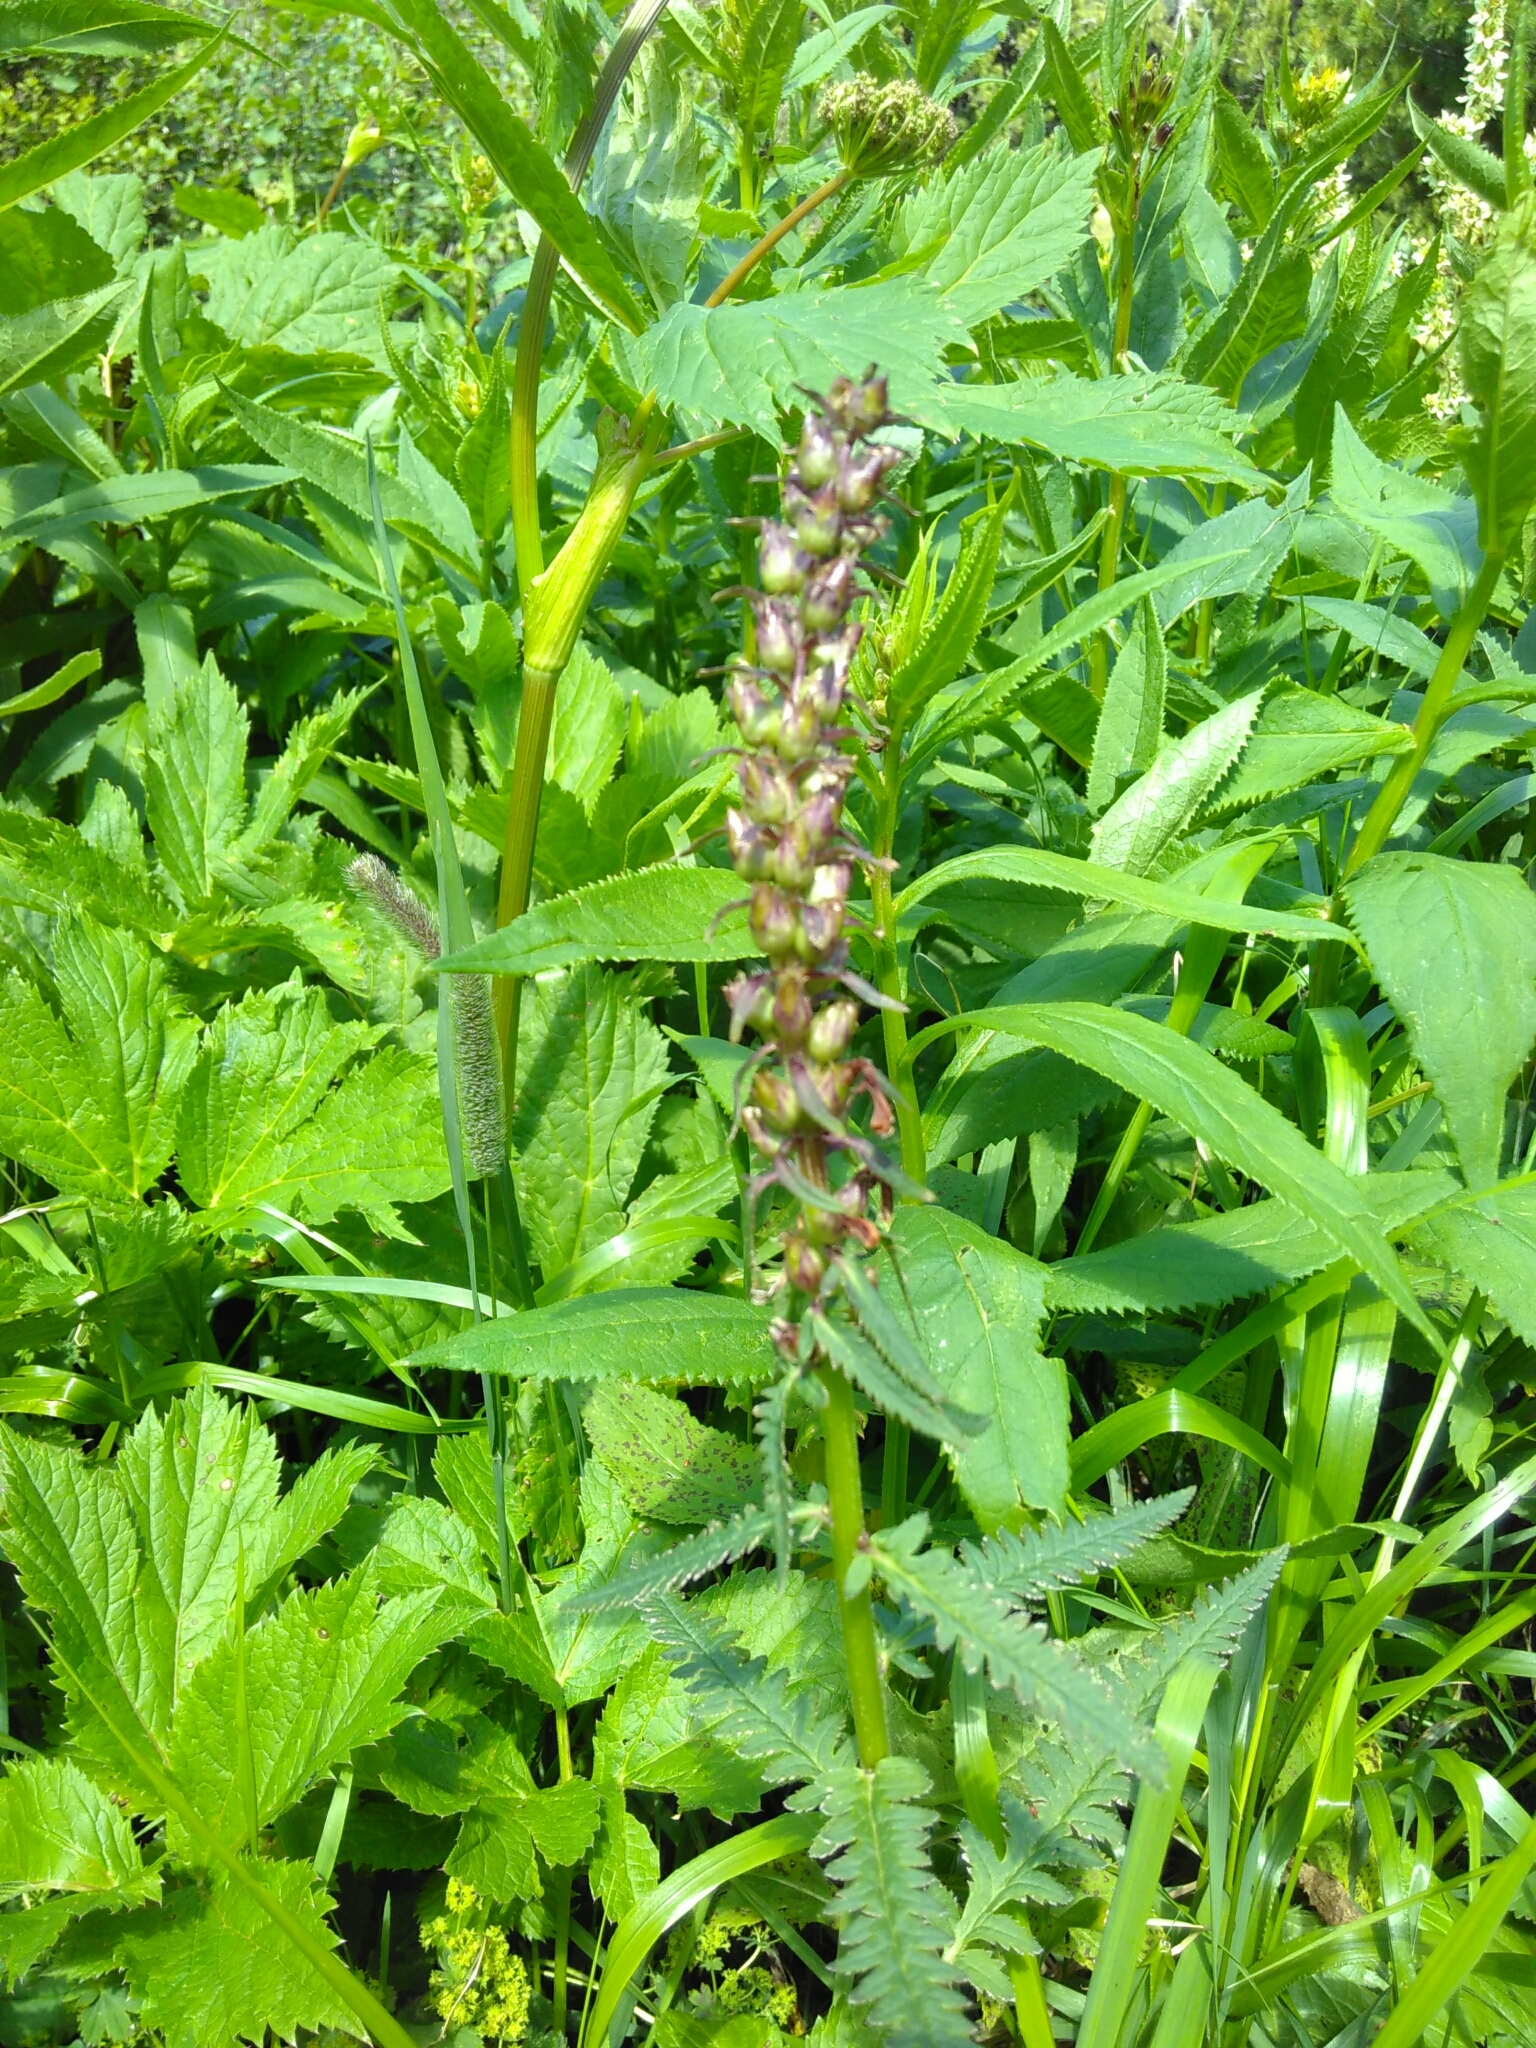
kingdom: Plantae
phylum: Tracheophyta
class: Magnoliopsida
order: Lamiales
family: Orobanchaceae
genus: Pedicularis
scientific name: Pedicularis recutita
